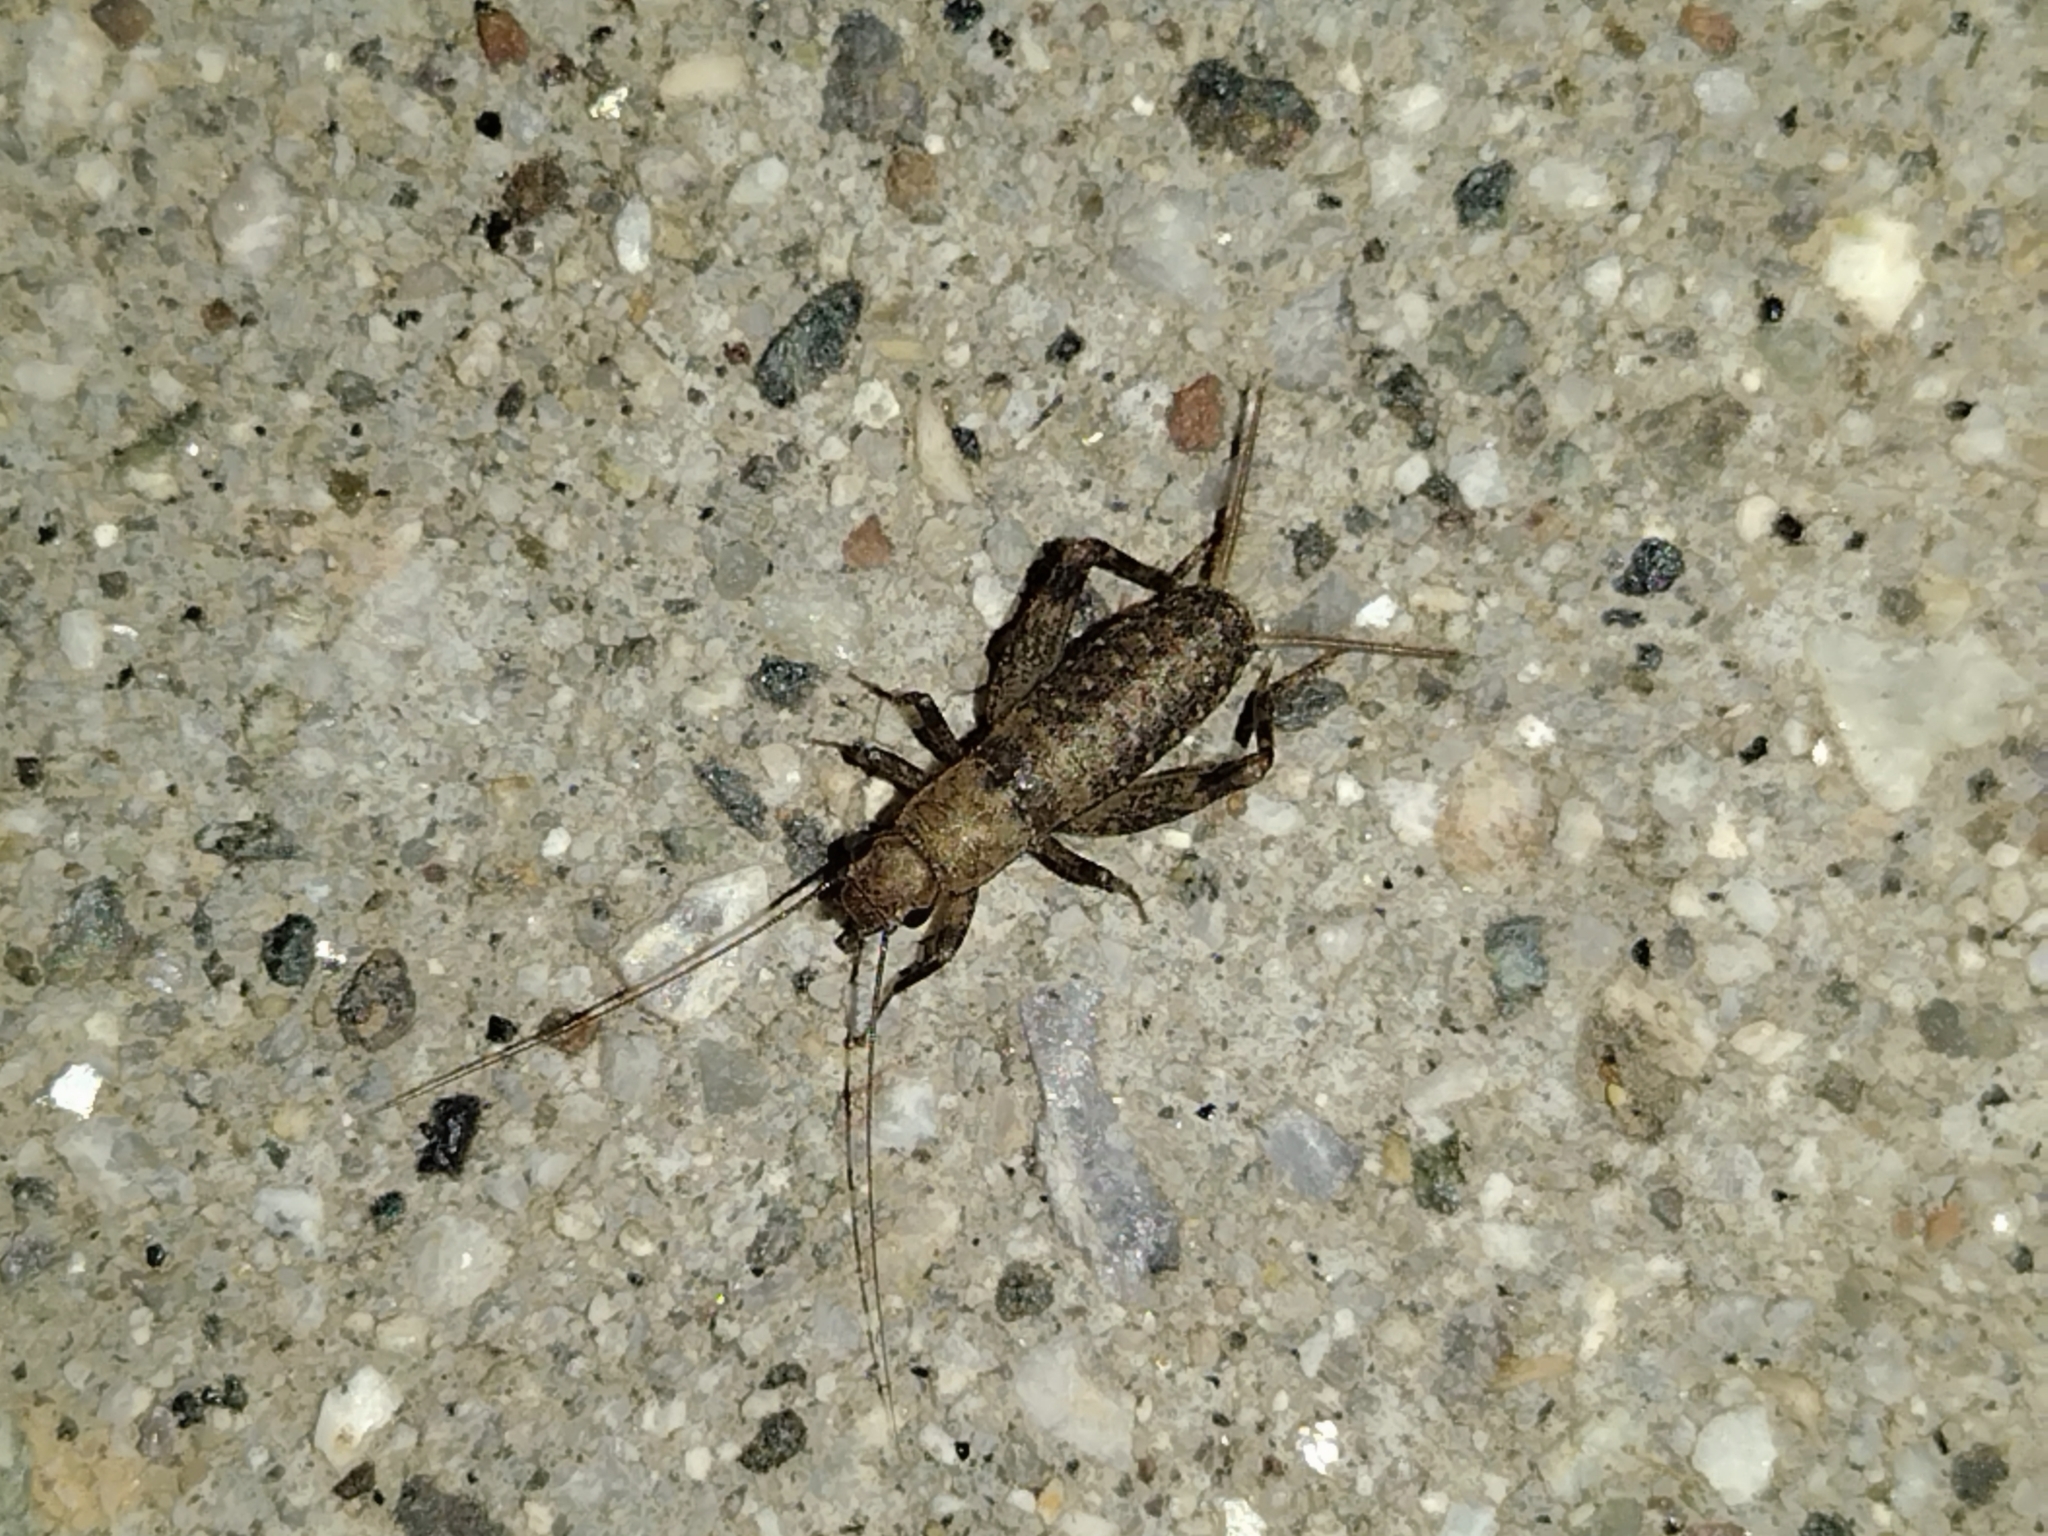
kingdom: Animalia
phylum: Arthropoda
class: Insecta
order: Orthoptera
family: Mogoplistidae
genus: Hoplosphyrum
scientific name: Hoplosphyrum boreale
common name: Long-winged scaly cricket
